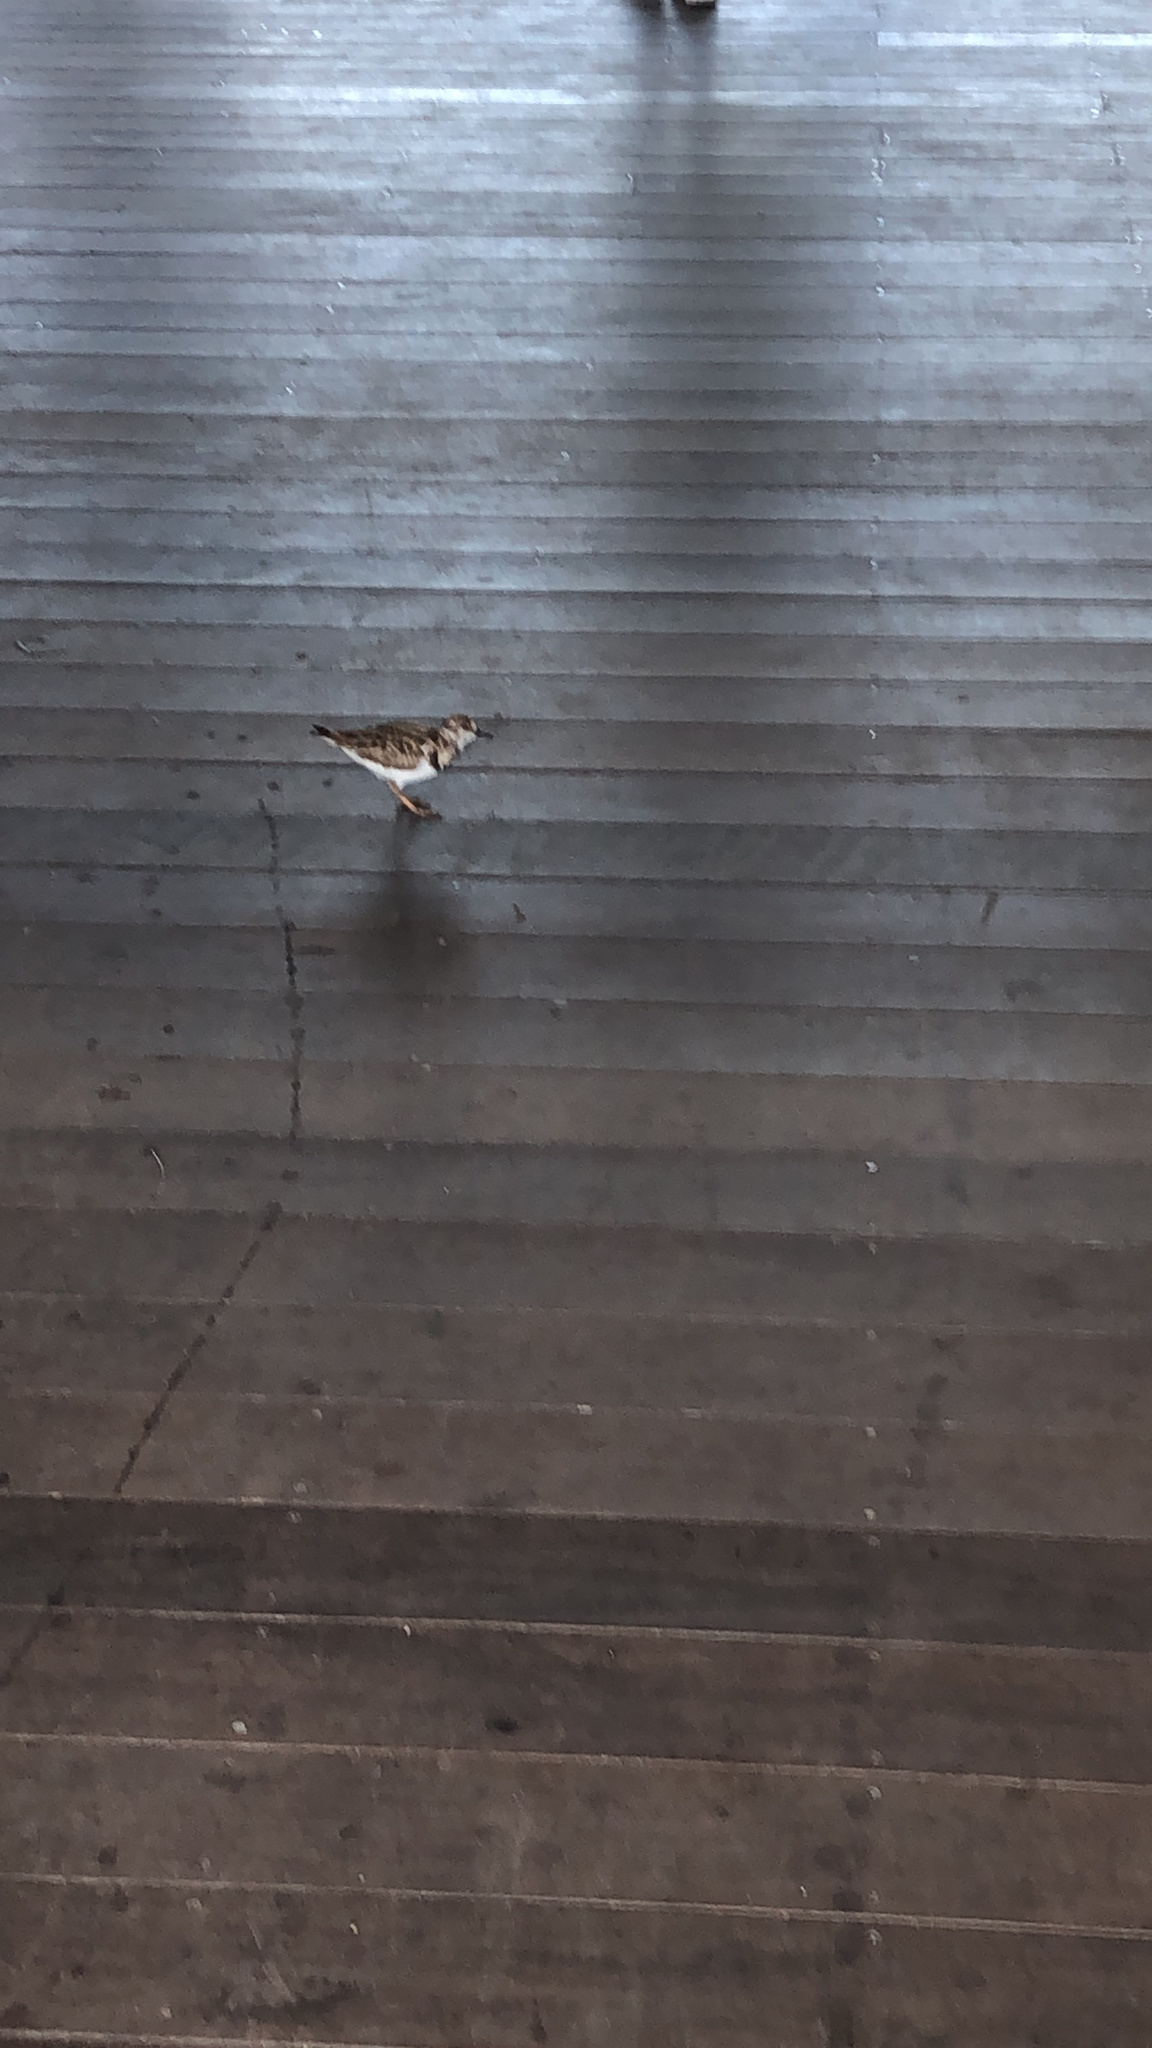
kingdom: Animalia
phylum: Chordata
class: Aves
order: Charadriiformes
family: Scolopacidae
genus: Arenaria
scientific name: Arenaria interpres
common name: Ruddy turnstone
